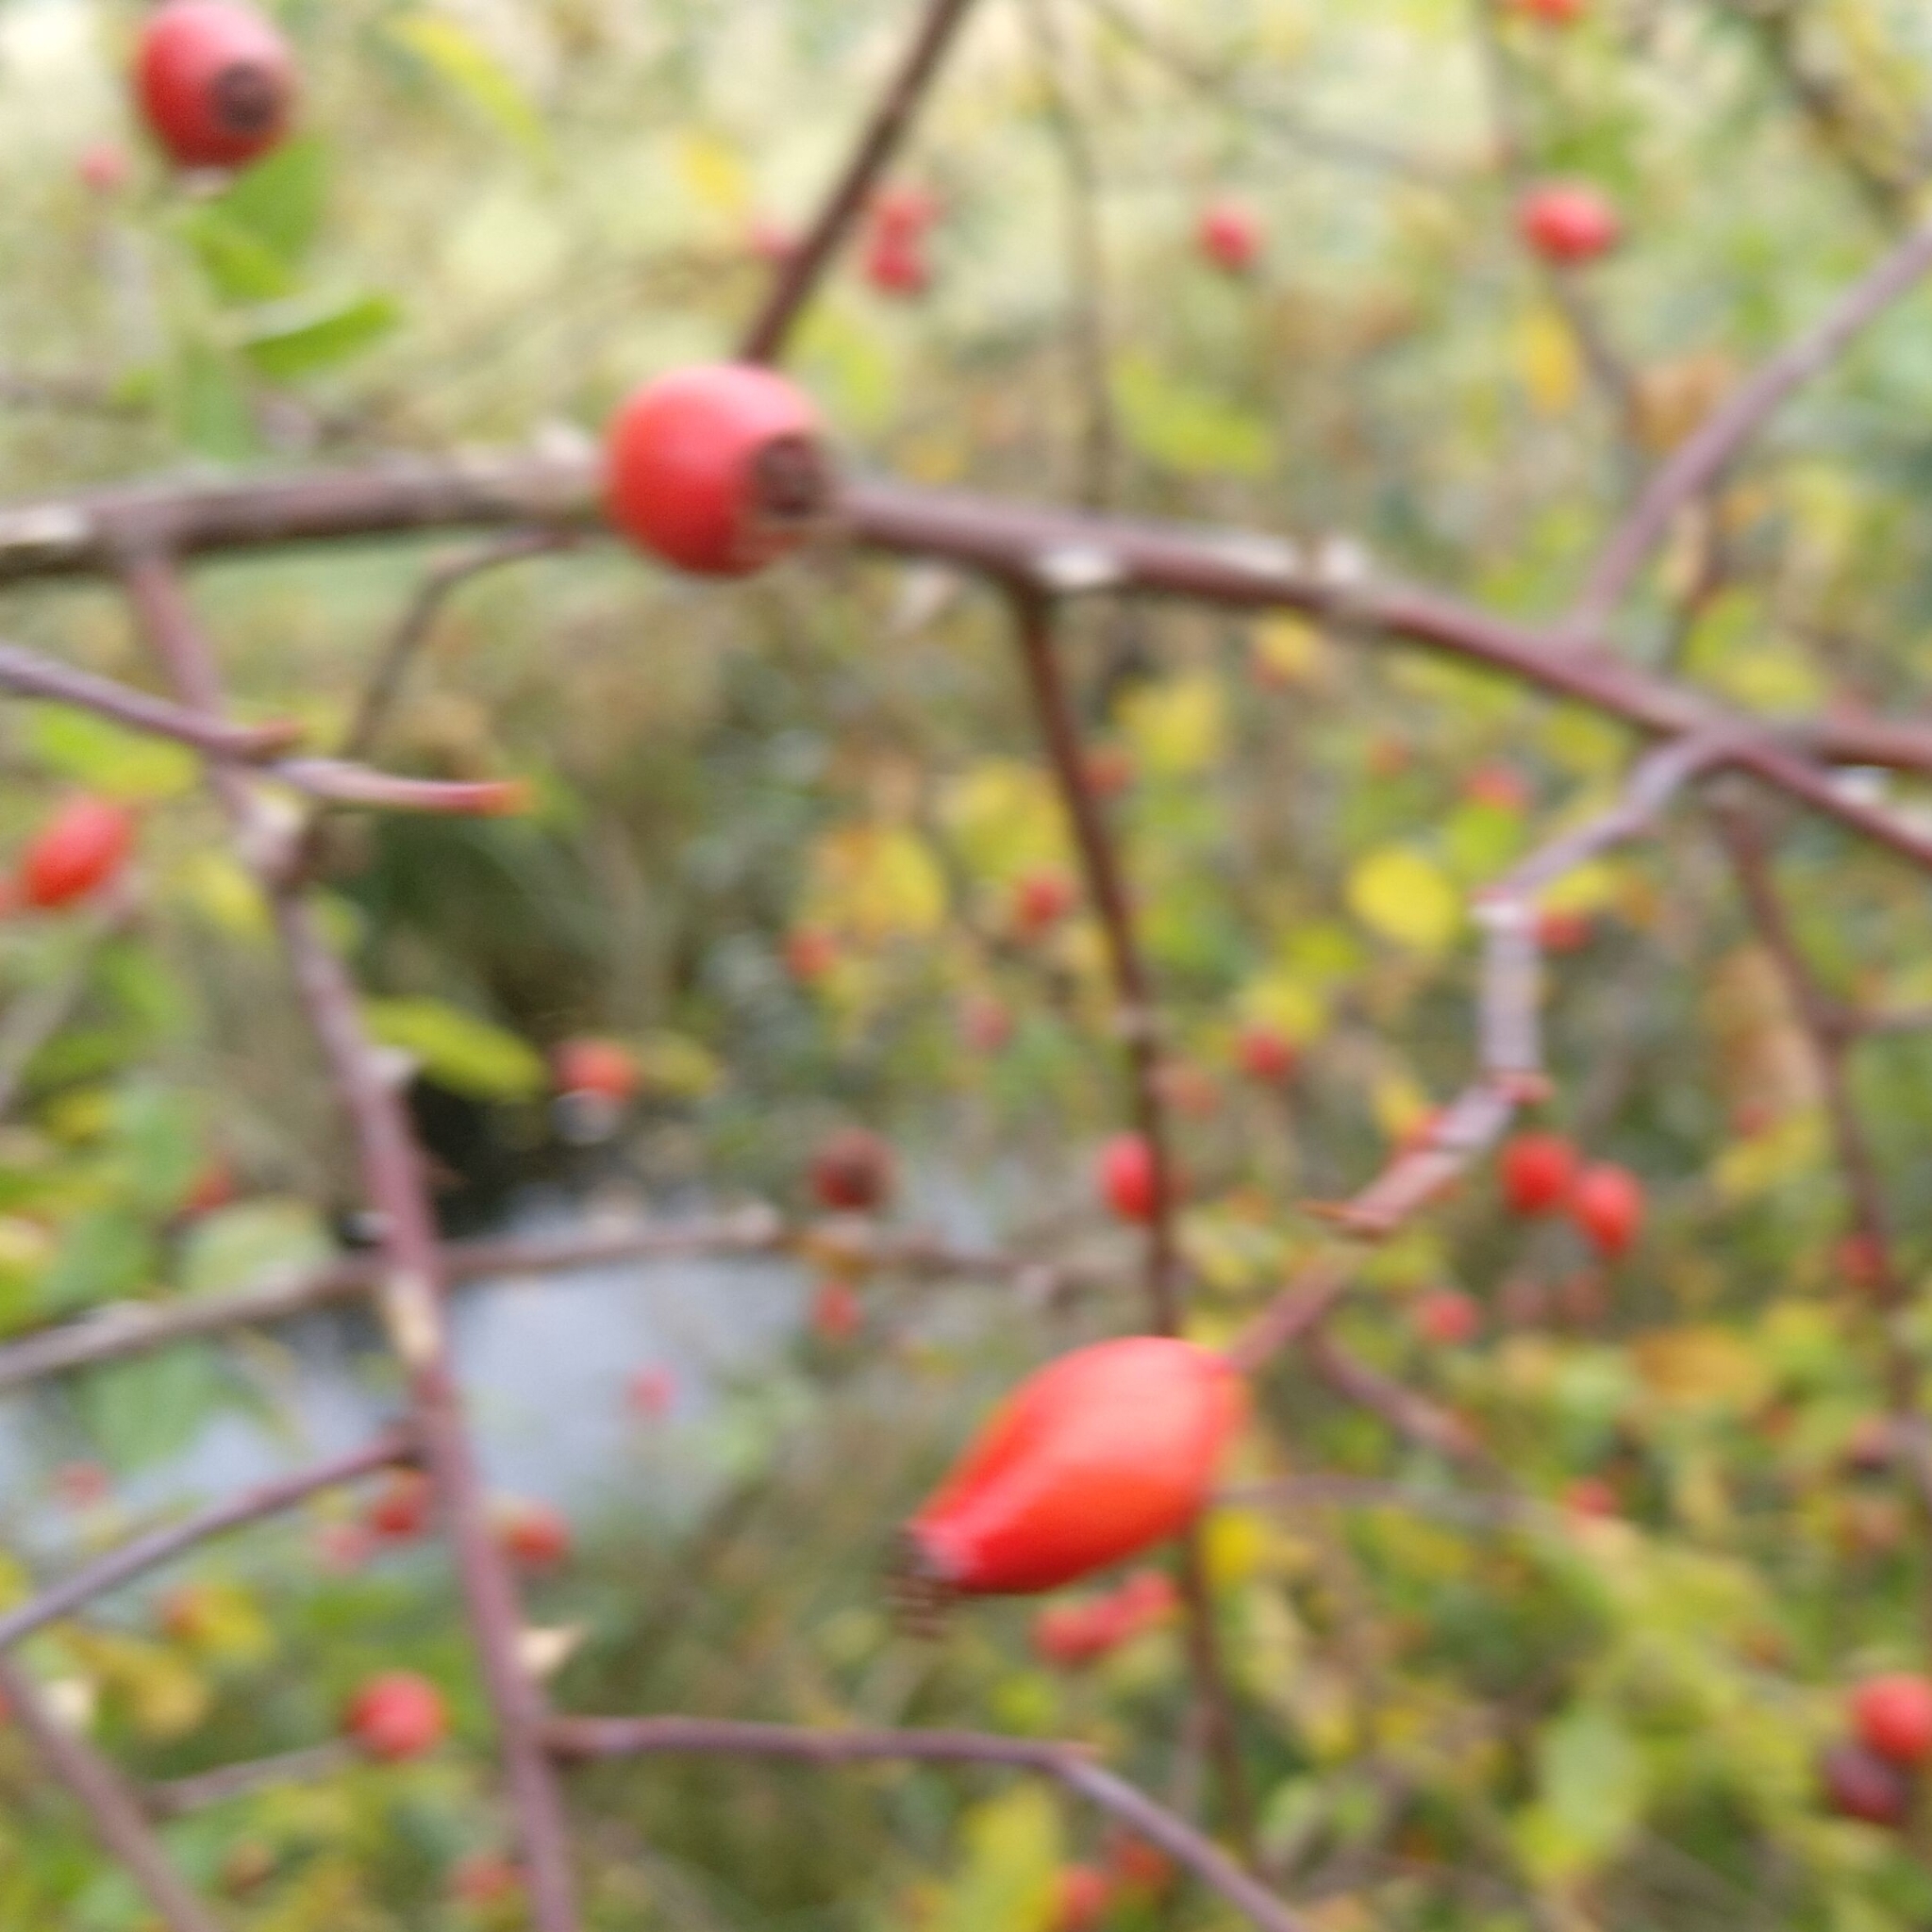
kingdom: Plantae
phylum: Tracheophyta
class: Magnoliopsida
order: Rosales
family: Rosaceae
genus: Rosa
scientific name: Rosa canina
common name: Dog rose
